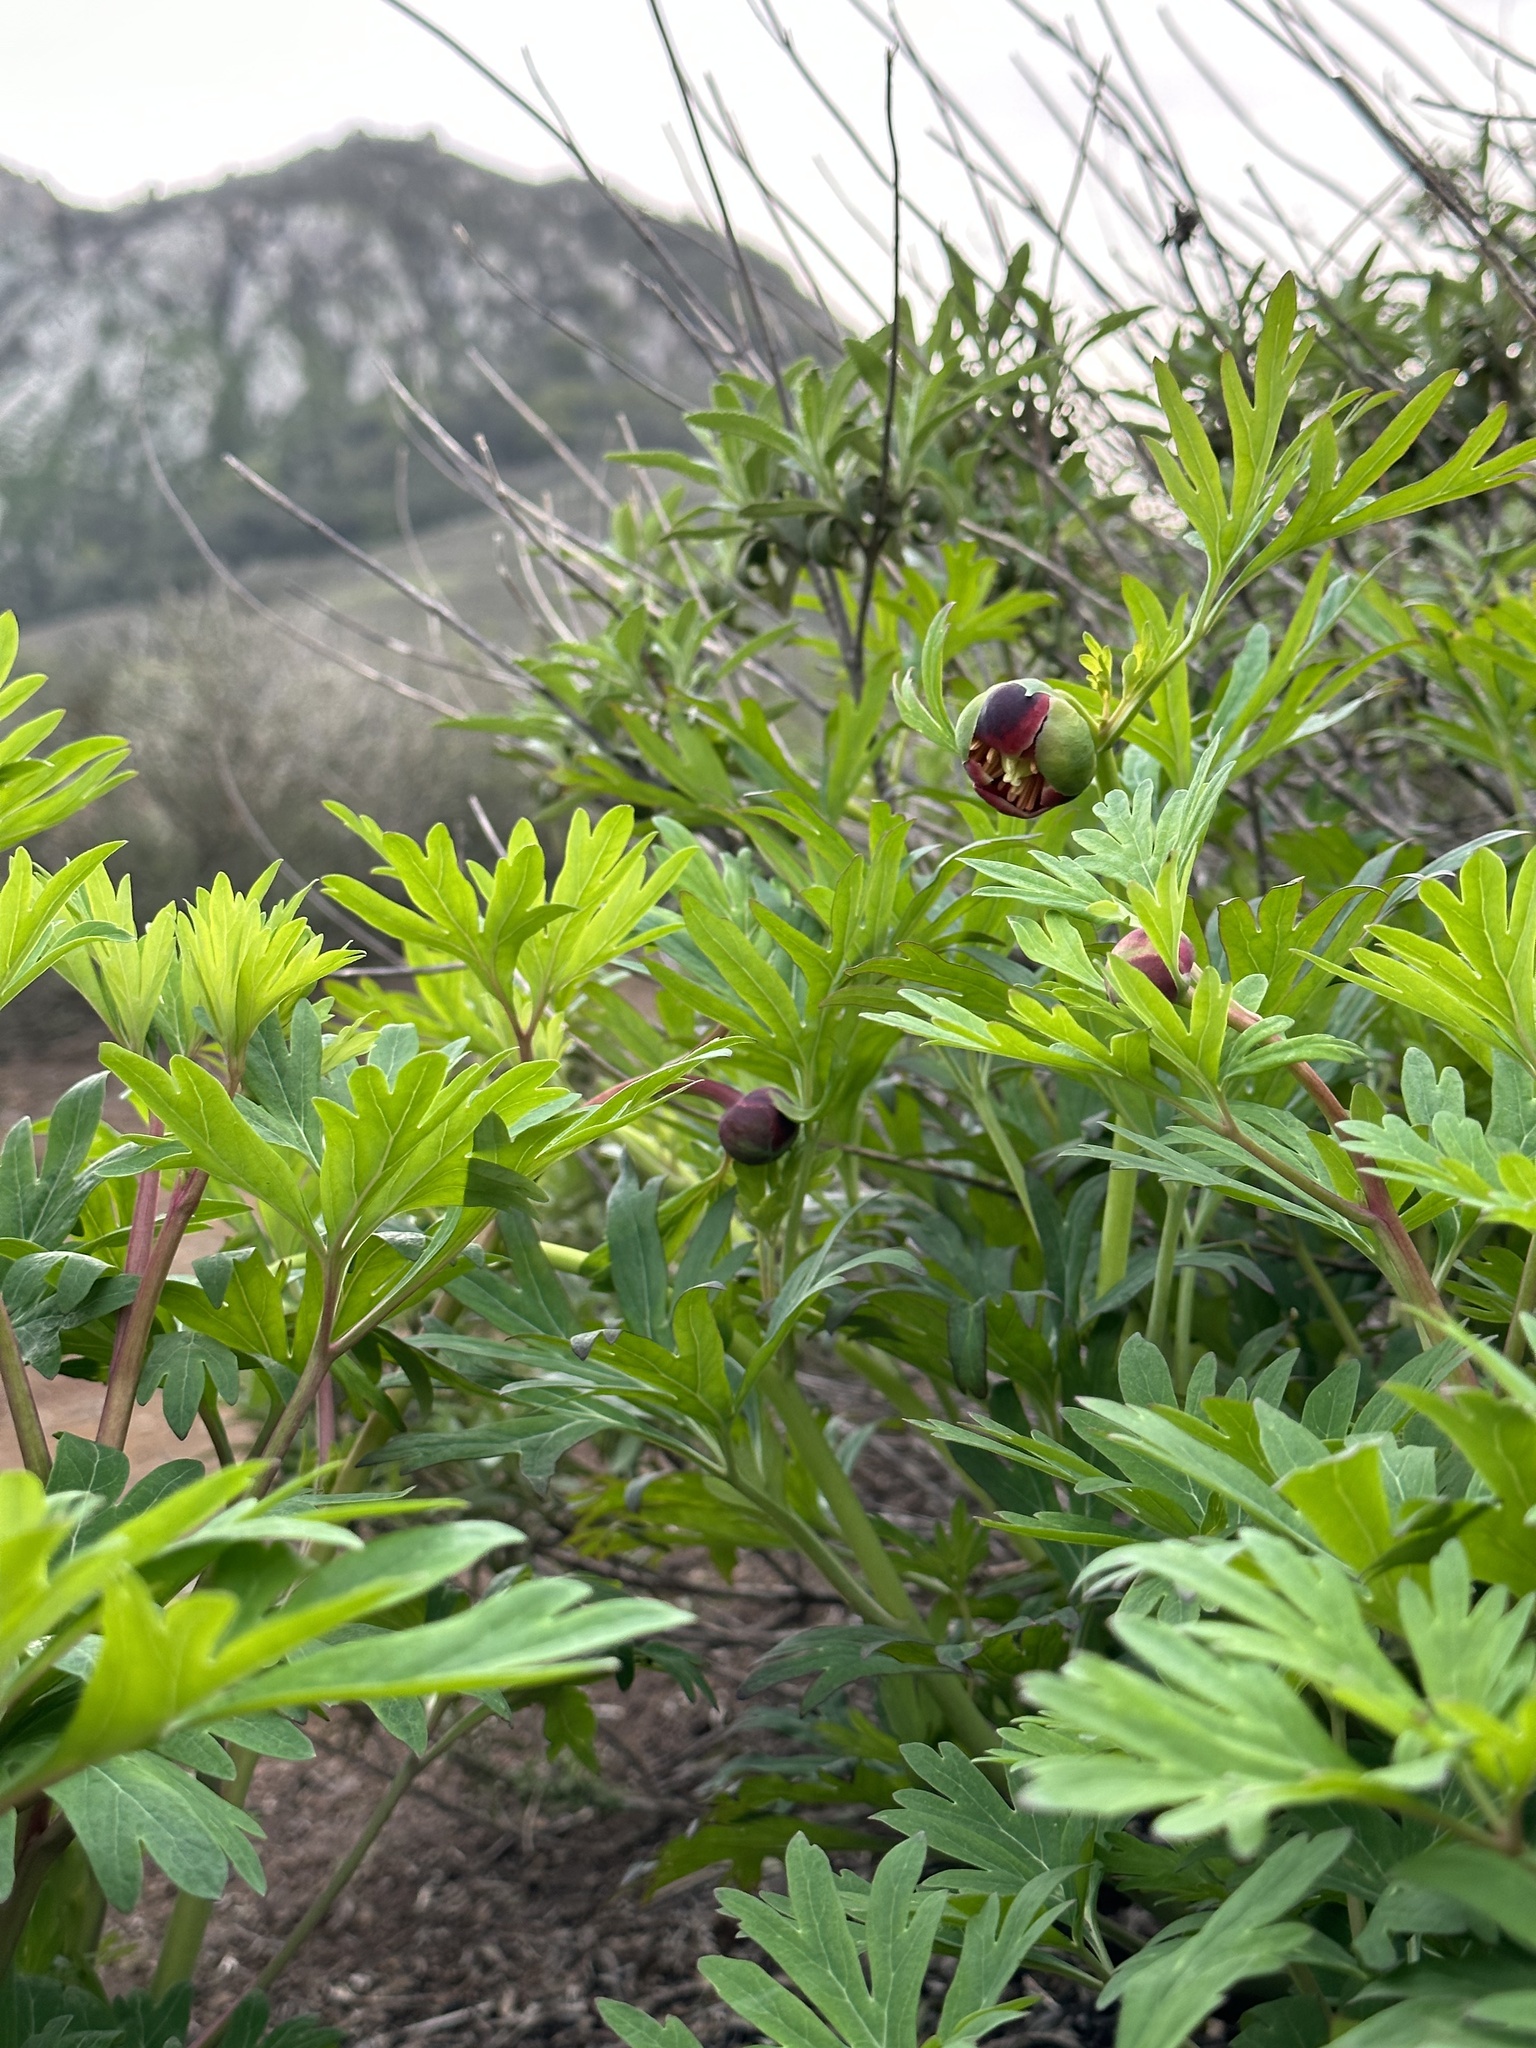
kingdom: Plantae
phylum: Tracheophyta
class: Magnoliopsida
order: Saxifragales
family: Paeoniaceae
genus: Paeonia
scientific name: Paeonia californica
